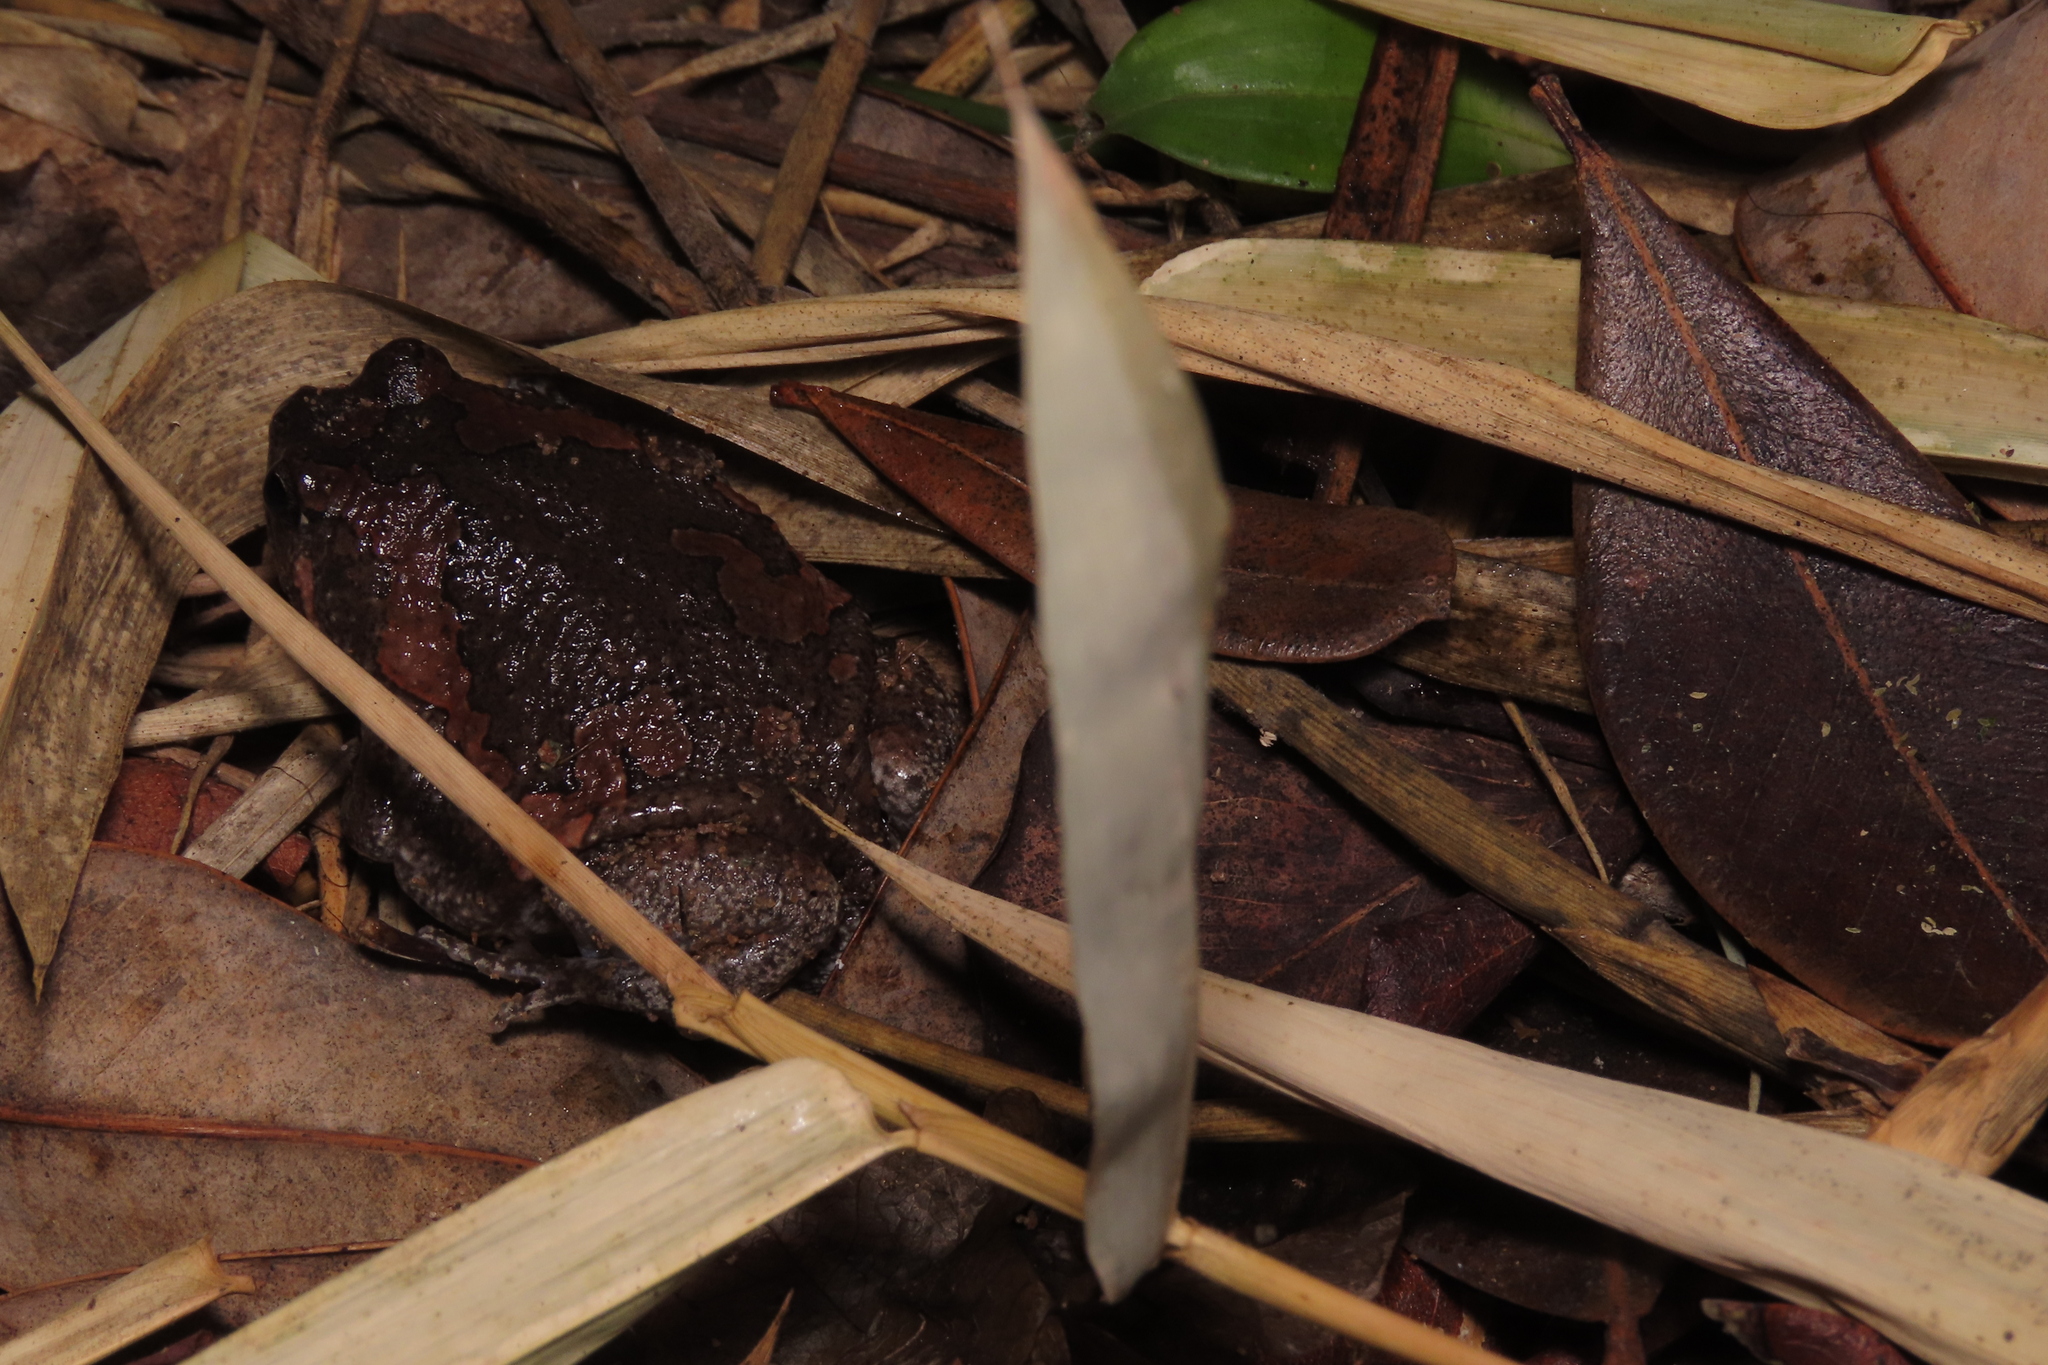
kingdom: Animalia
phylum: Chordata
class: Amphibia
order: Anura
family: Microhylidae
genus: Uperodon
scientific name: Uperodon taprobanicus
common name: Ceylon kaloula
